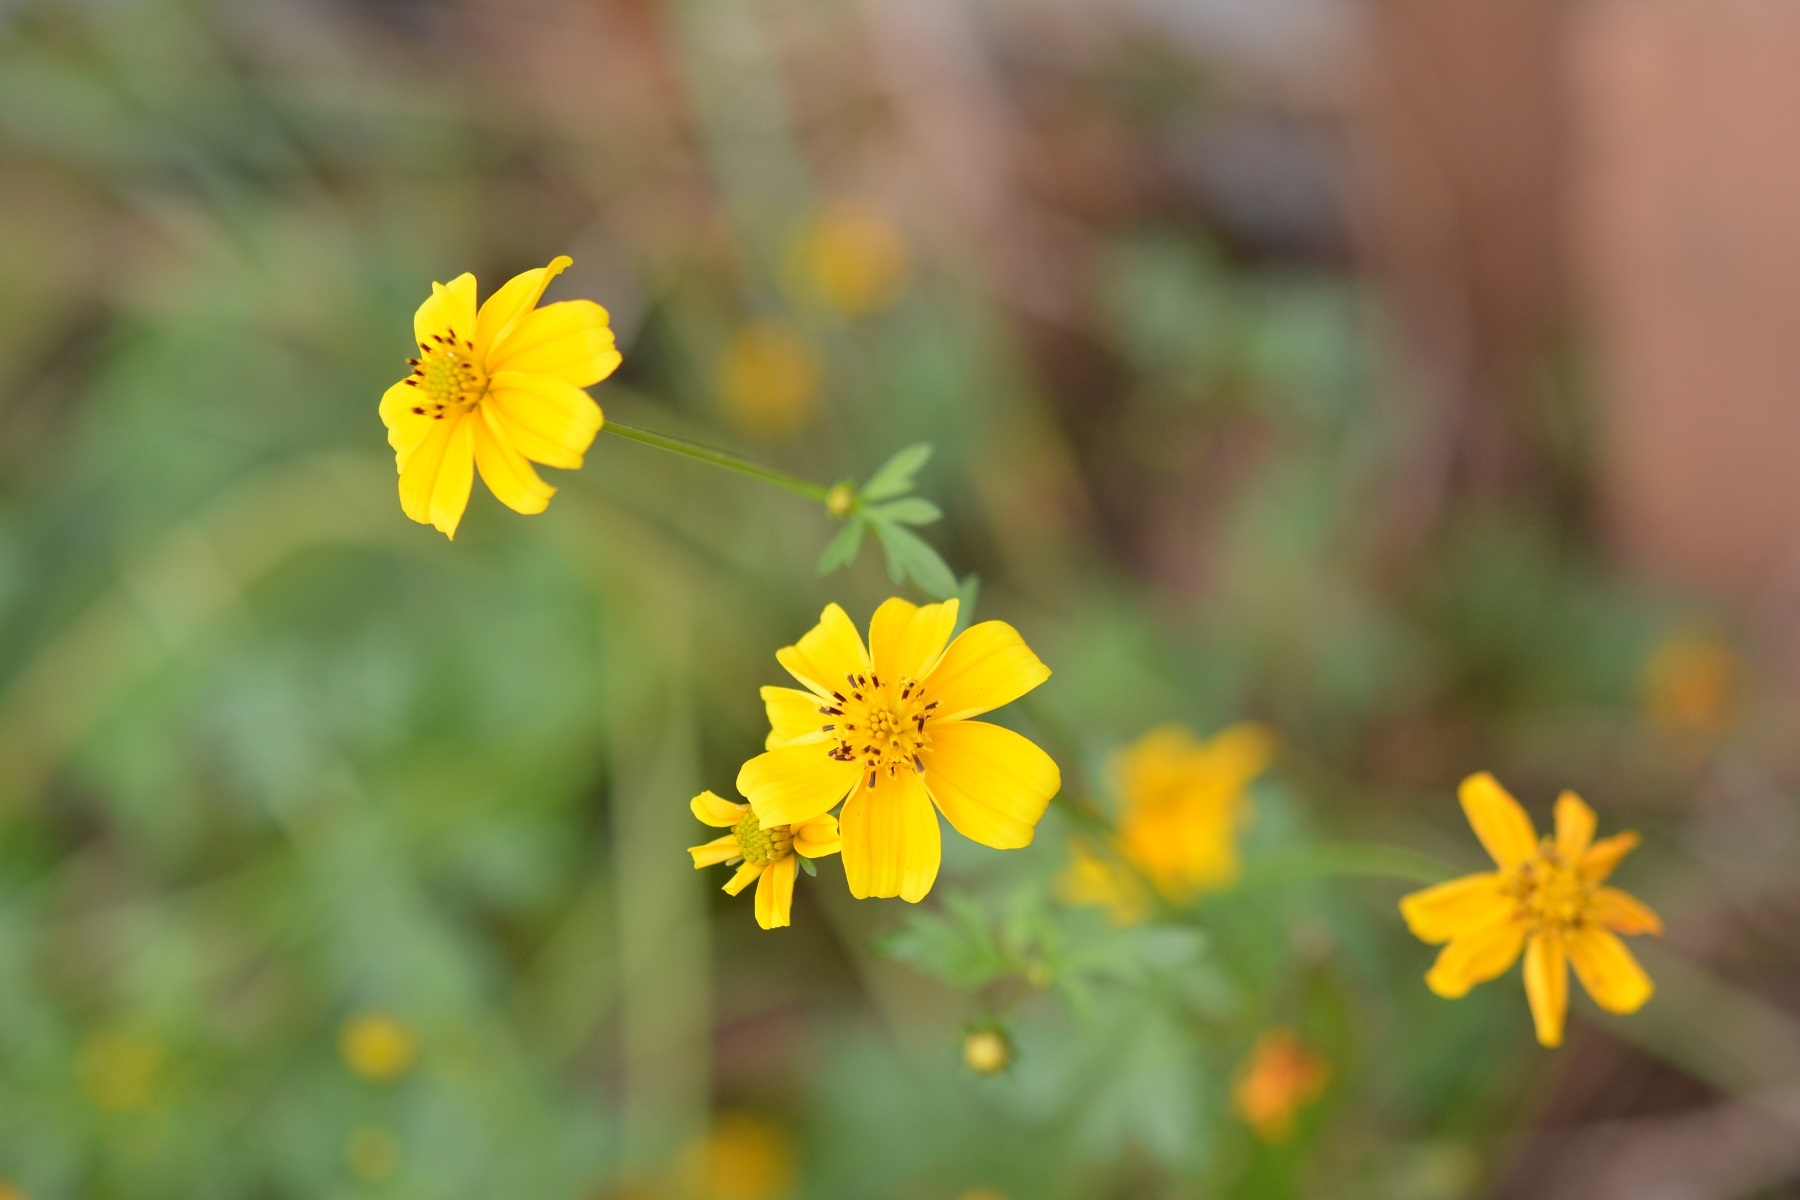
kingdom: Plantae
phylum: Tracheophyta
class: Magnoliopsida
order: Asterales
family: Asteraceae
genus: Bidens
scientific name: Bidens ballsii
